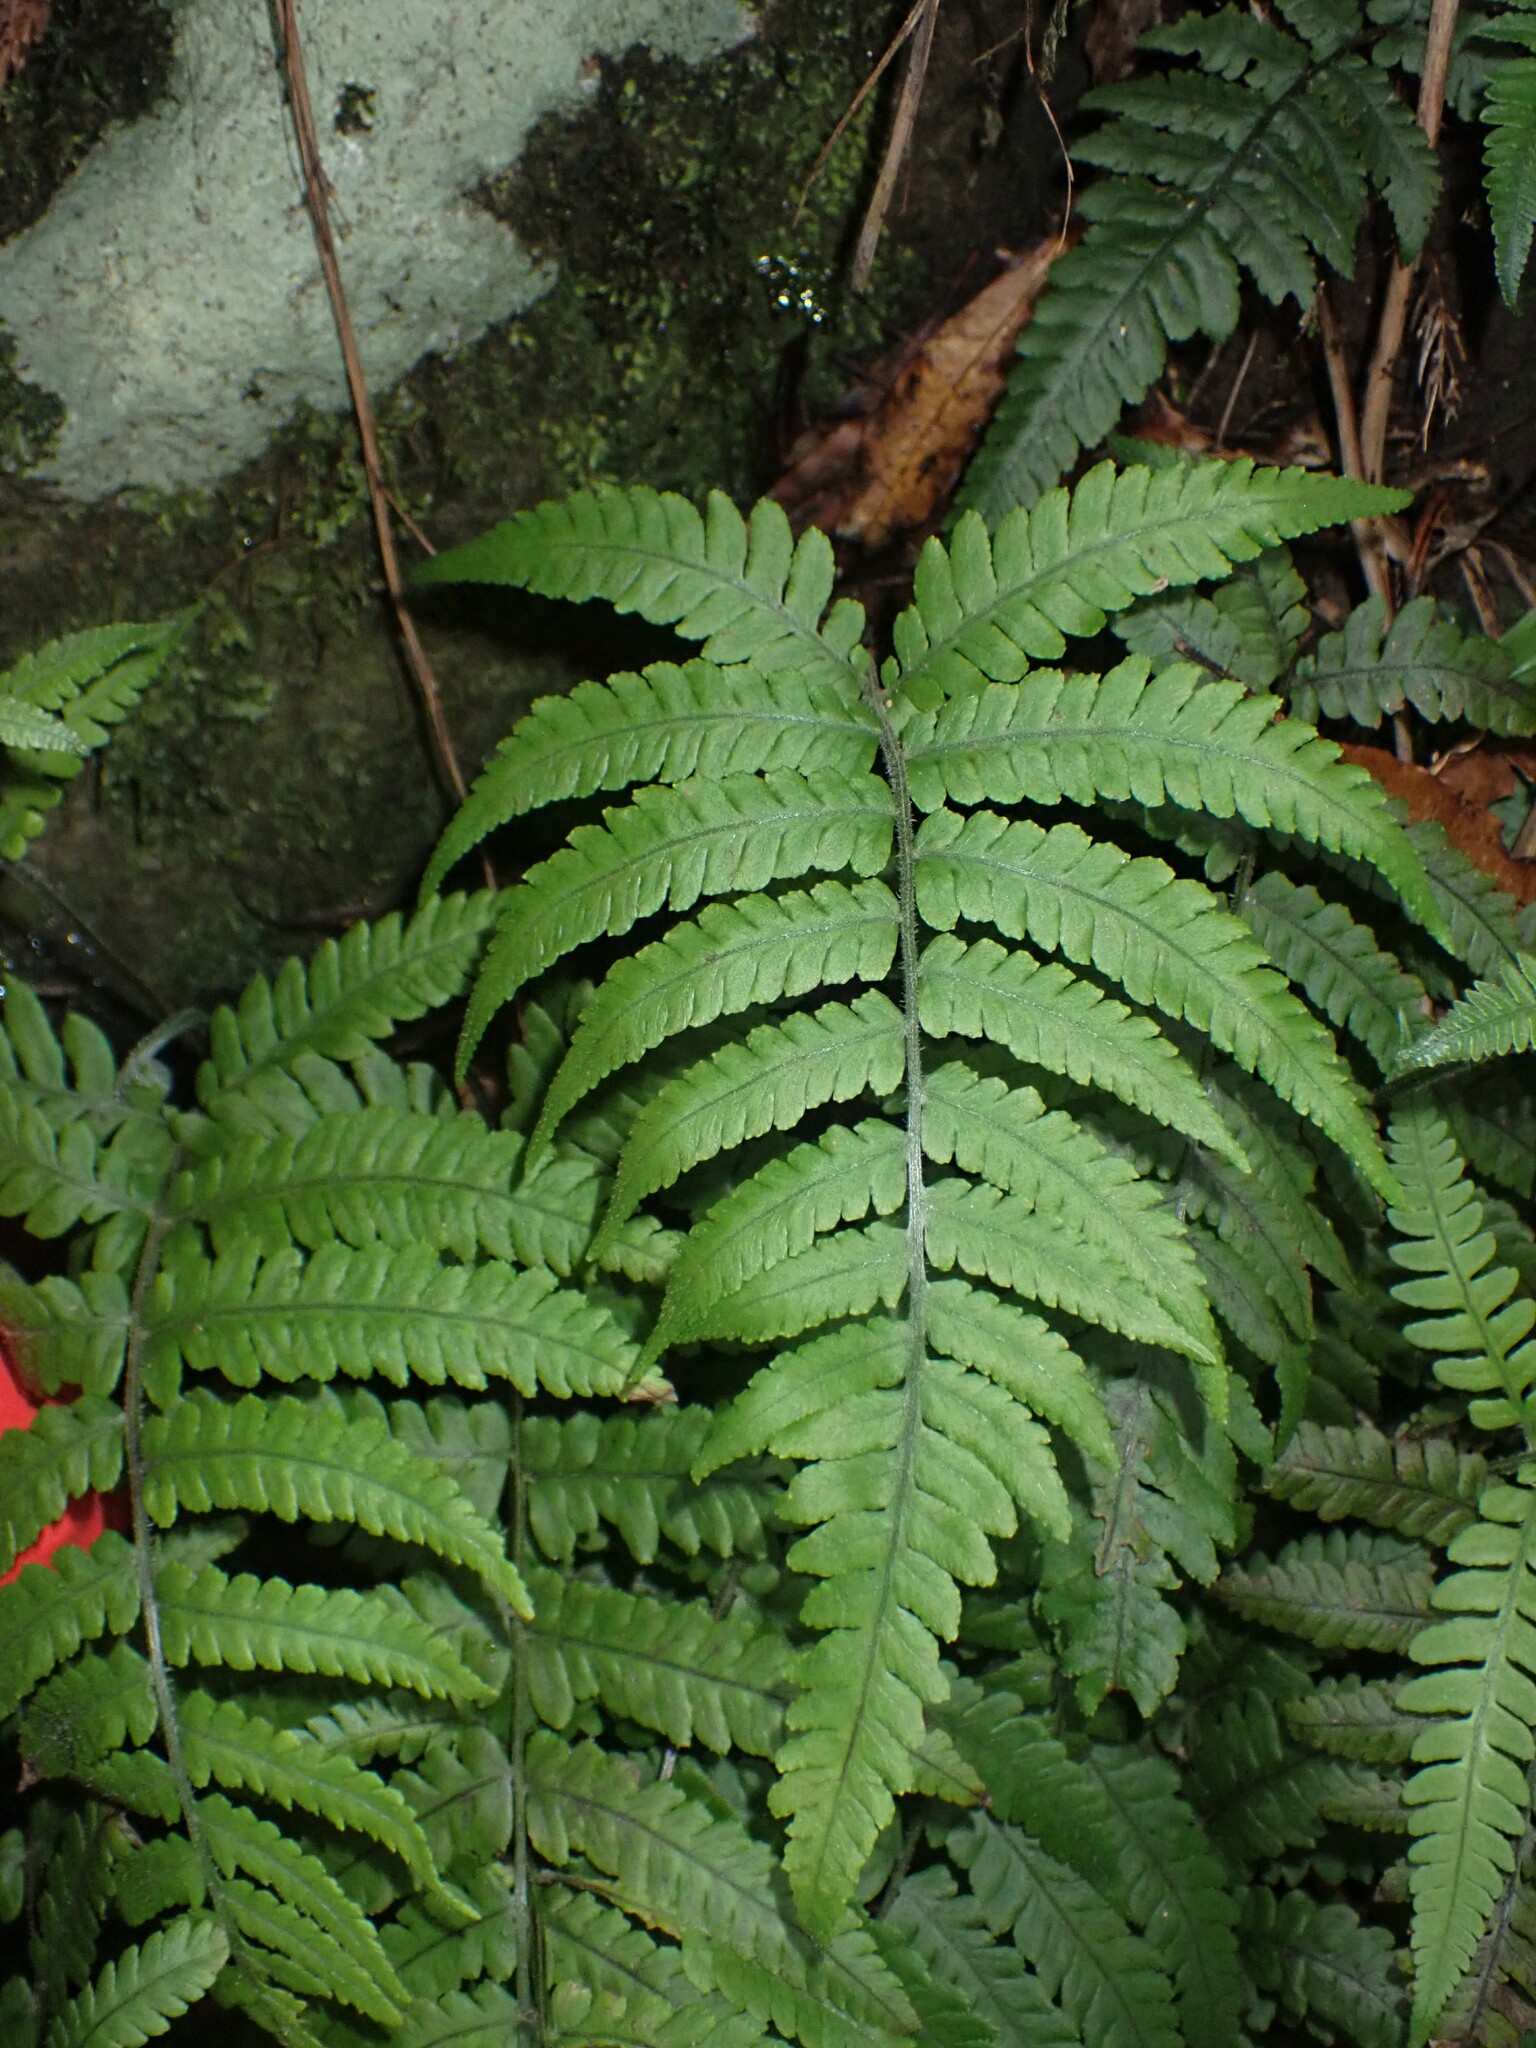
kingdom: Plantae
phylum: Tracheophyta
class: Polypodiopsida
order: Polypodiales
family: Athyriaceae
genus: Deparia
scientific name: Deparia petersenii
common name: Japanese false spleenwort
